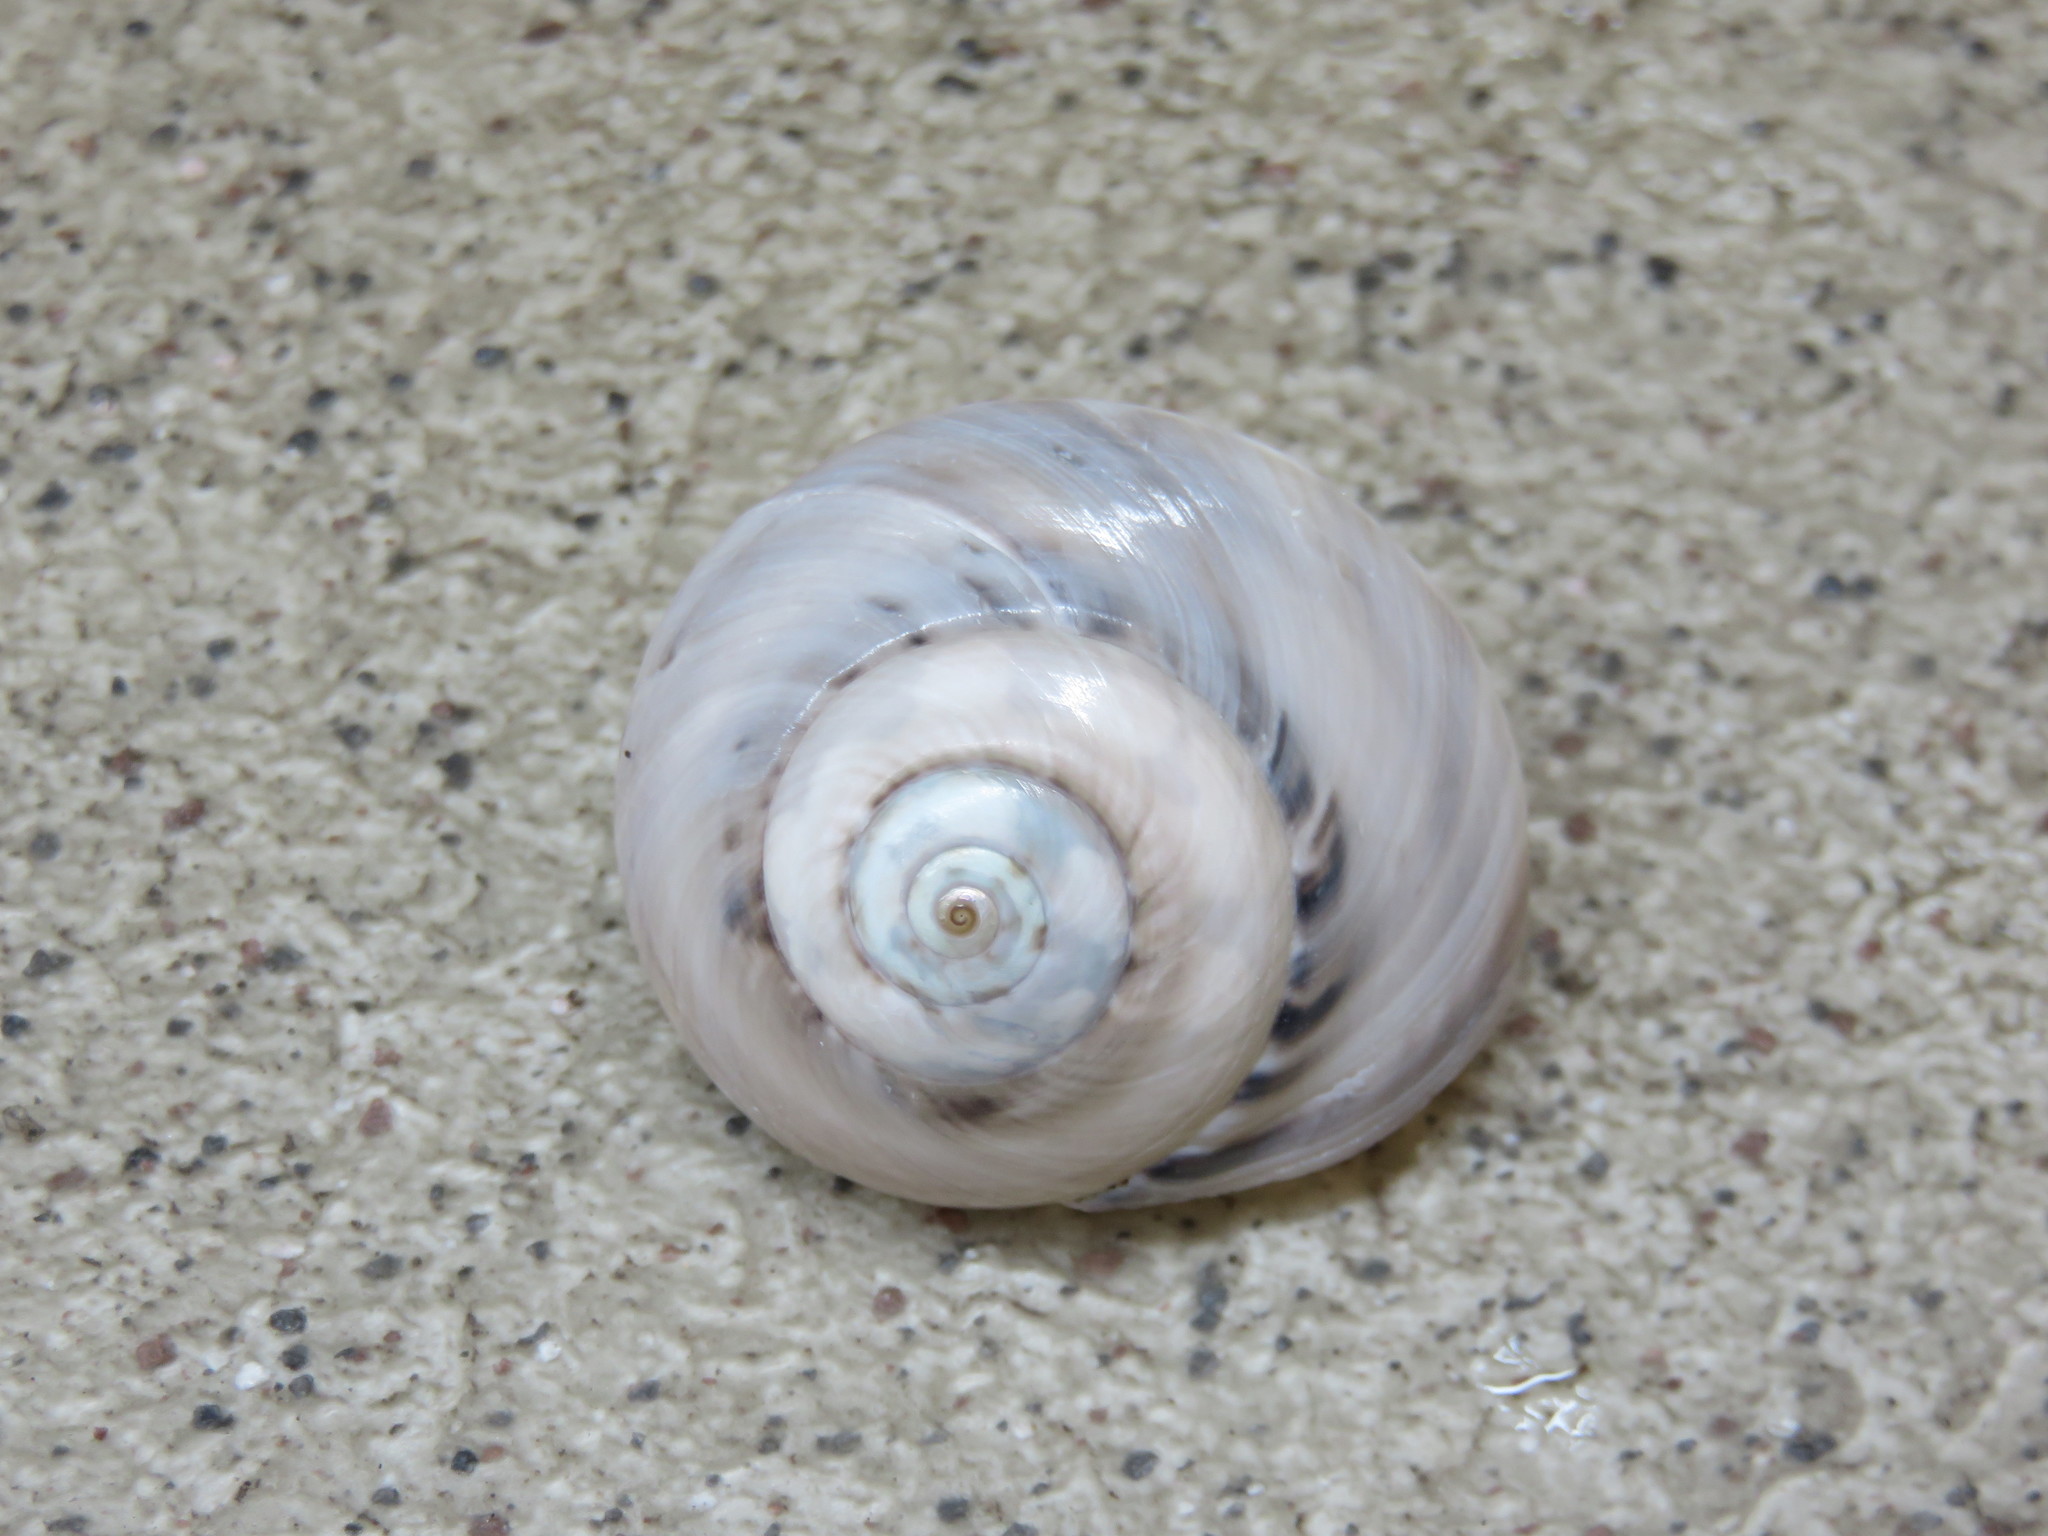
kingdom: Animalia
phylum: Mollusca
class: Gastropoda
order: Trochida
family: Trochidae
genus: Umbonium
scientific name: Umbonium giganteum
